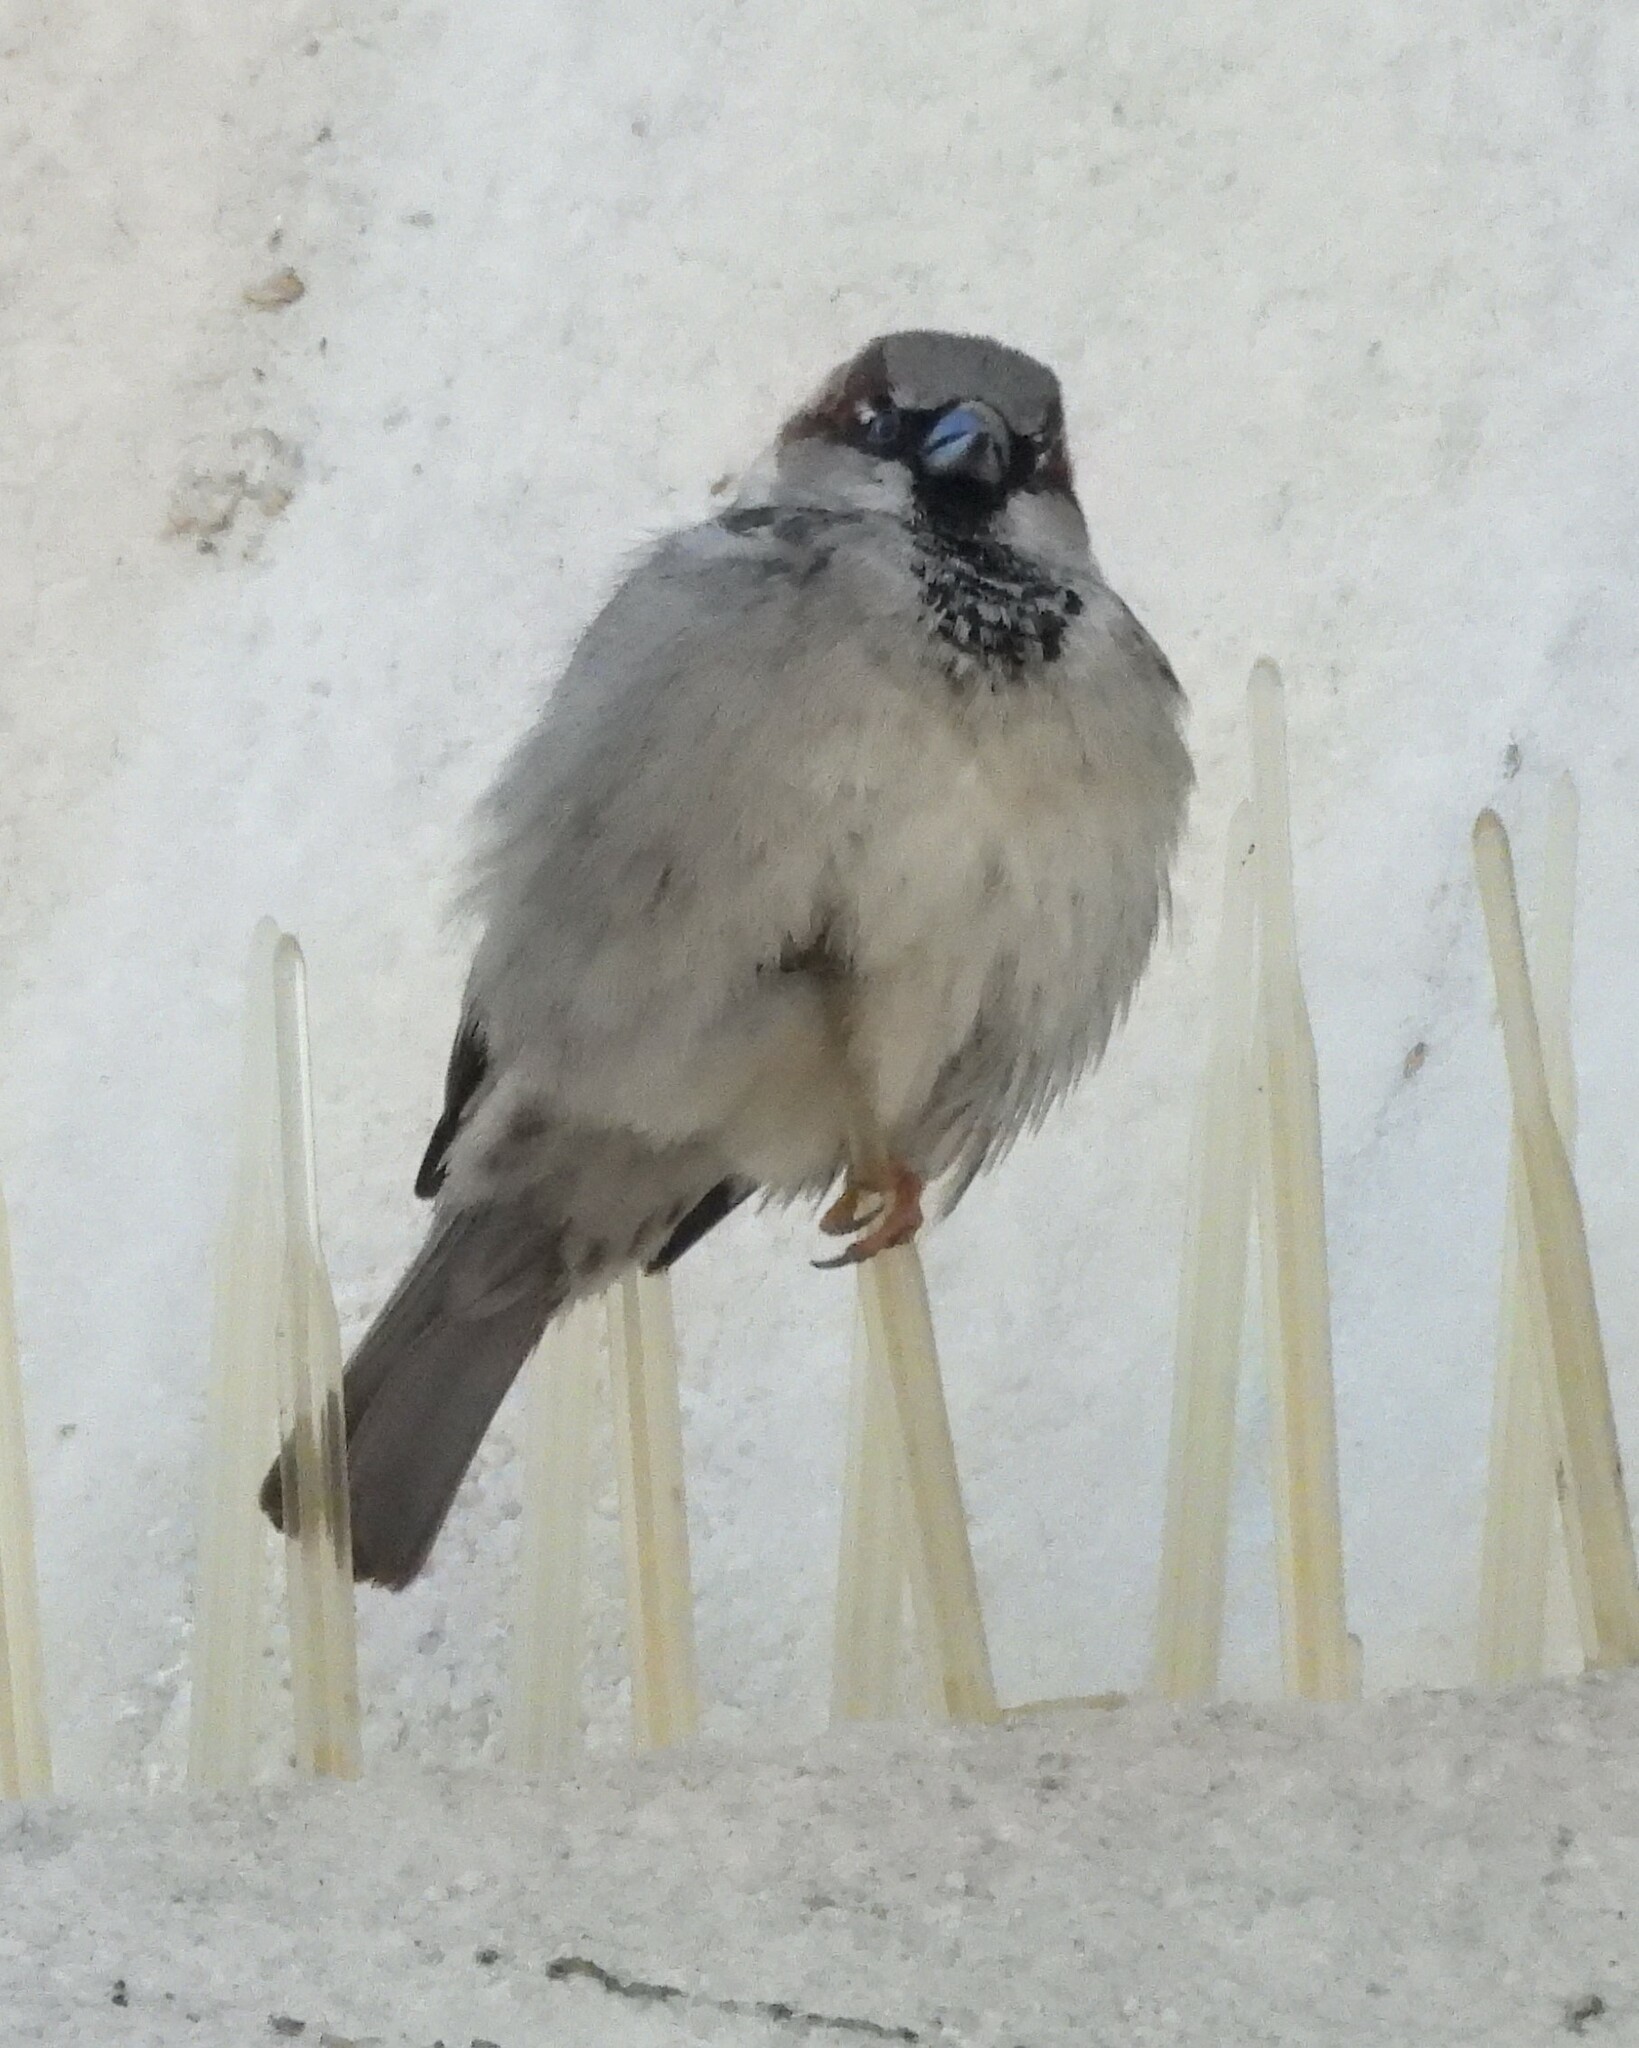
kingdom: Animalia
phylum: Chordata
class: Aves
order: Passeriformes
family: Passeridae
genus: Passer
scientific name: Passer domesticus
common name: House sparrow
